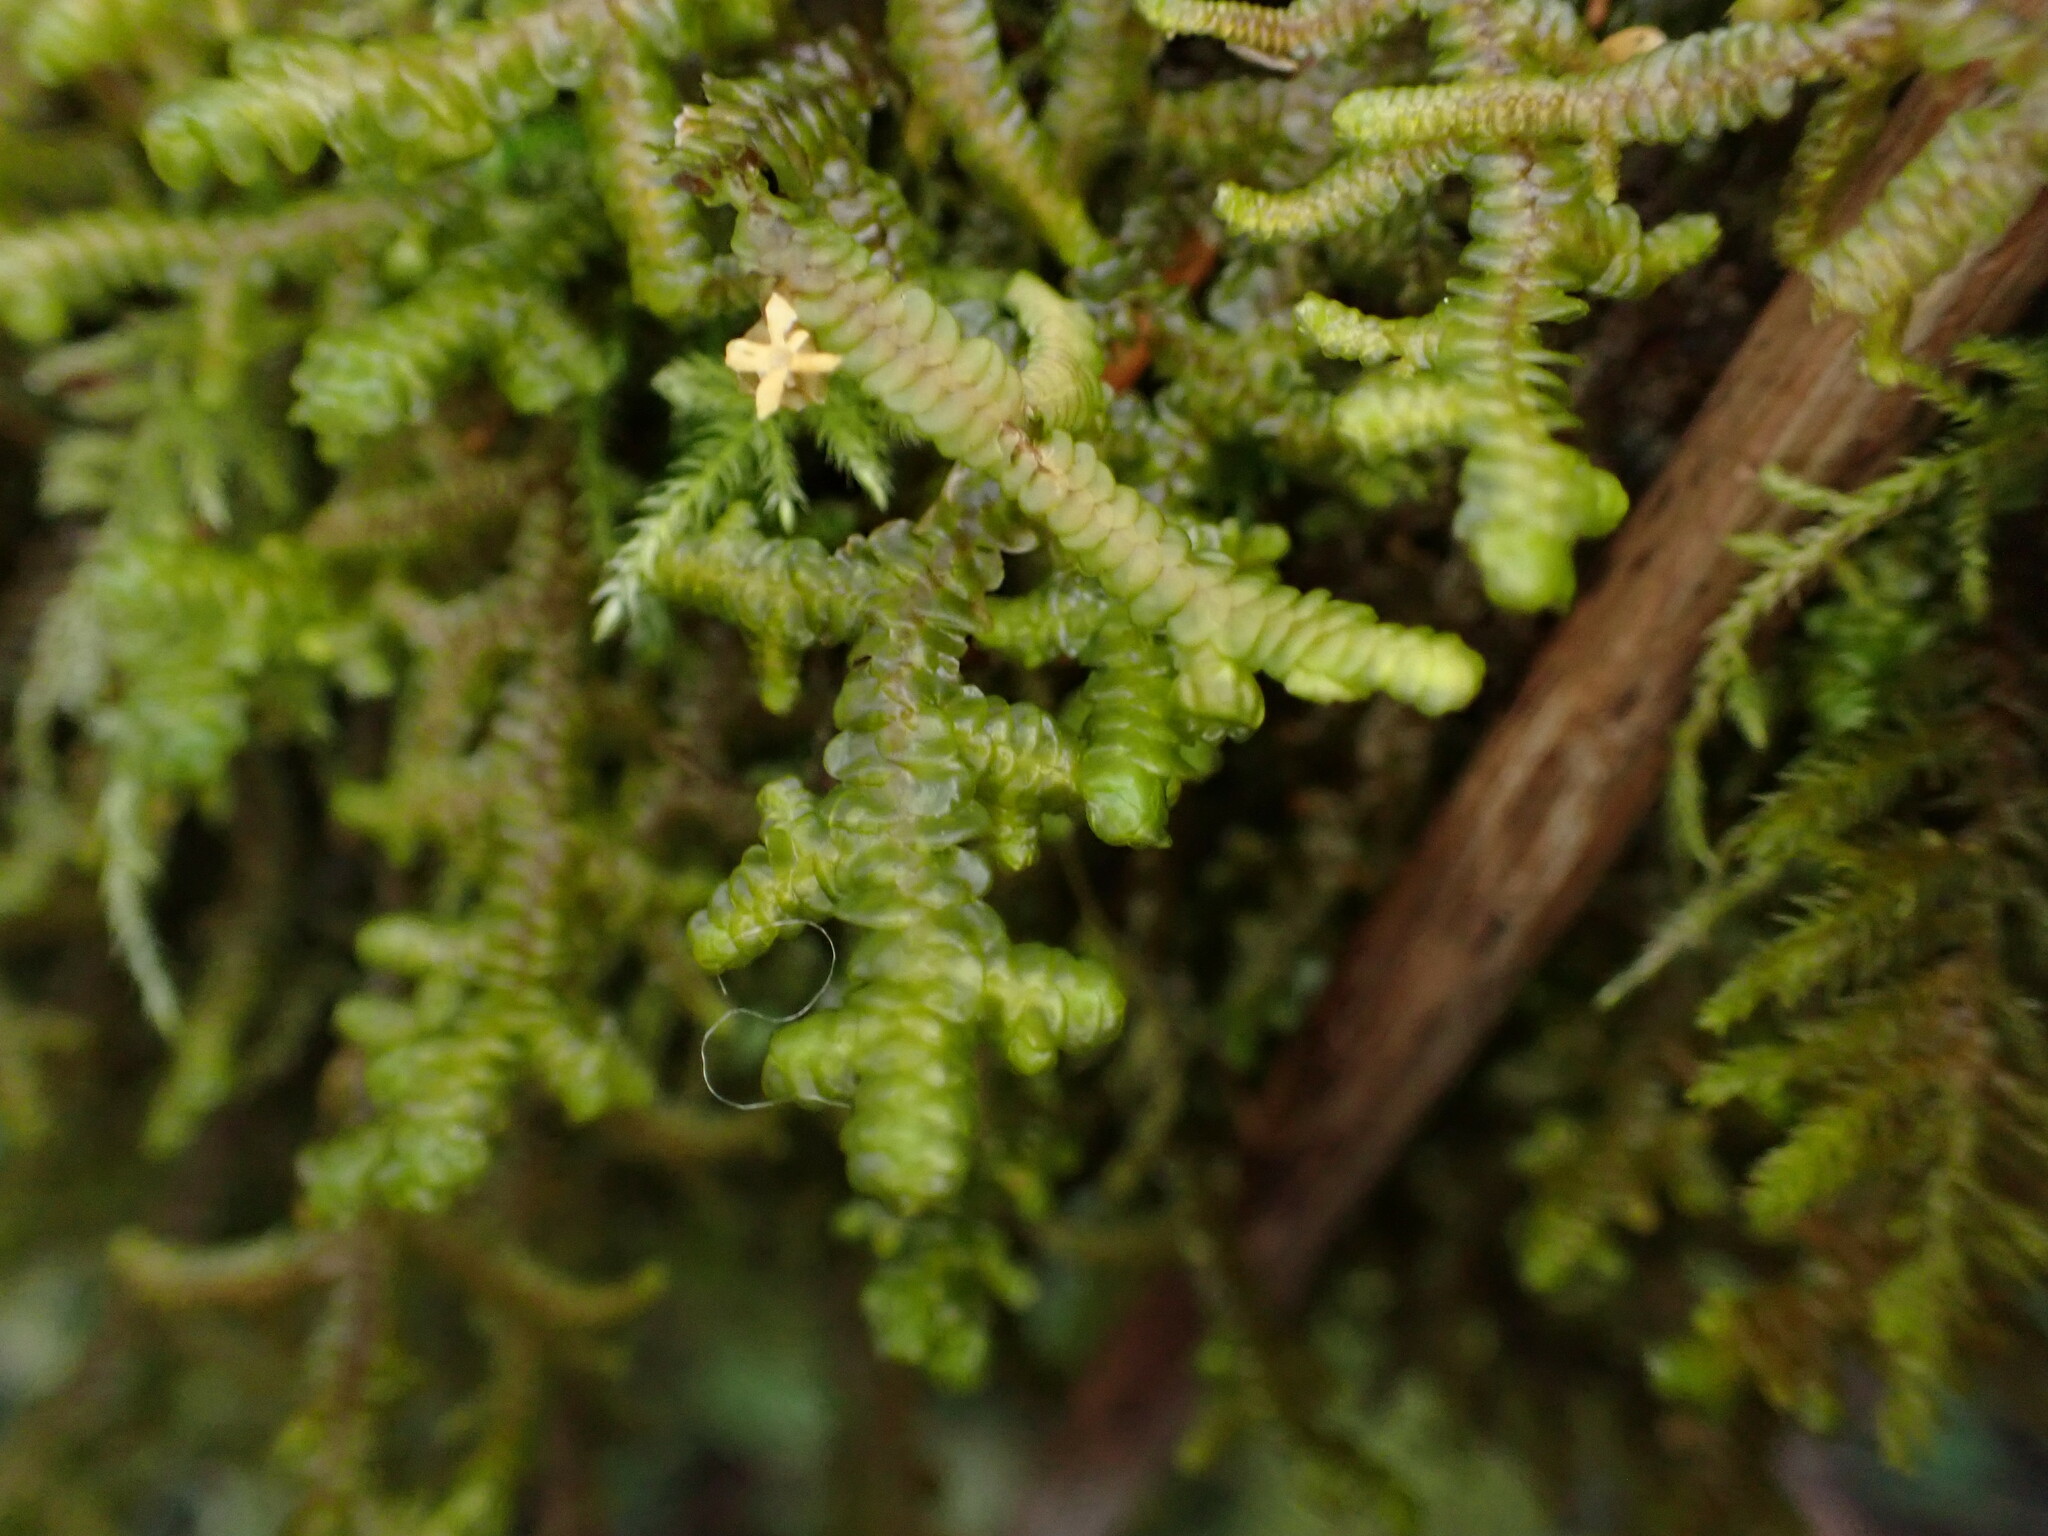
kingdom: Plantae
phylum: Marchantiophyta
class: Jungermanniopsida
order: Porellales
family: Porellaceae
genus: Porella
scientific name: Porella navicularis
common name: Tree ruffle liverwort
